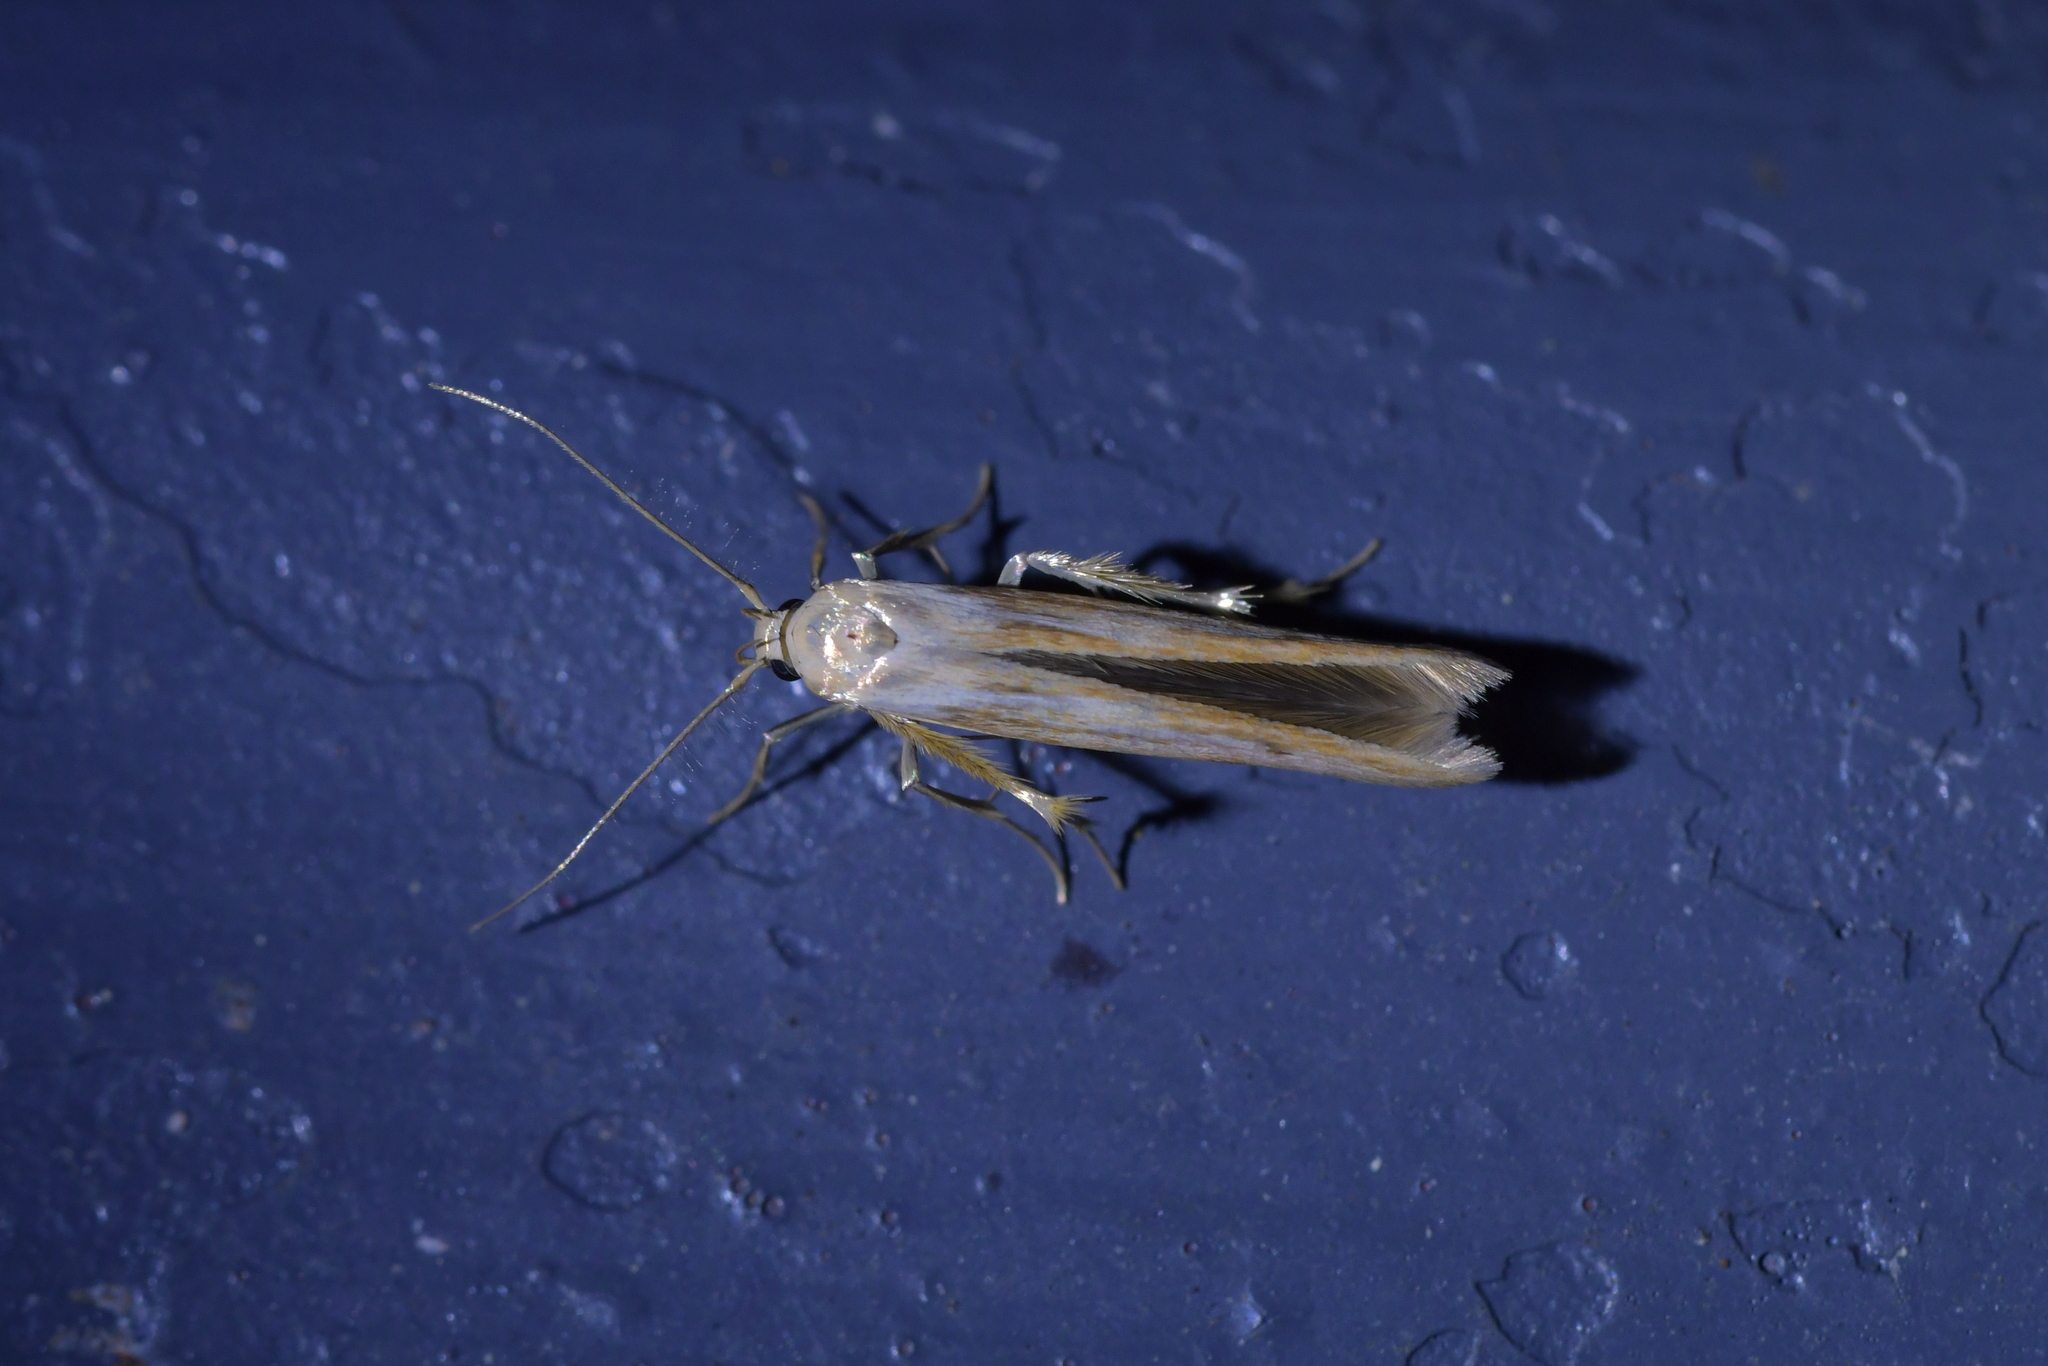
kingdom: Animalia
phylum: Arthropoda
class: Insecta
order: Lepidoptera
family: Stathmopodidae
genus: Stathmopoda
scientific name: Stathmopoda aposema
